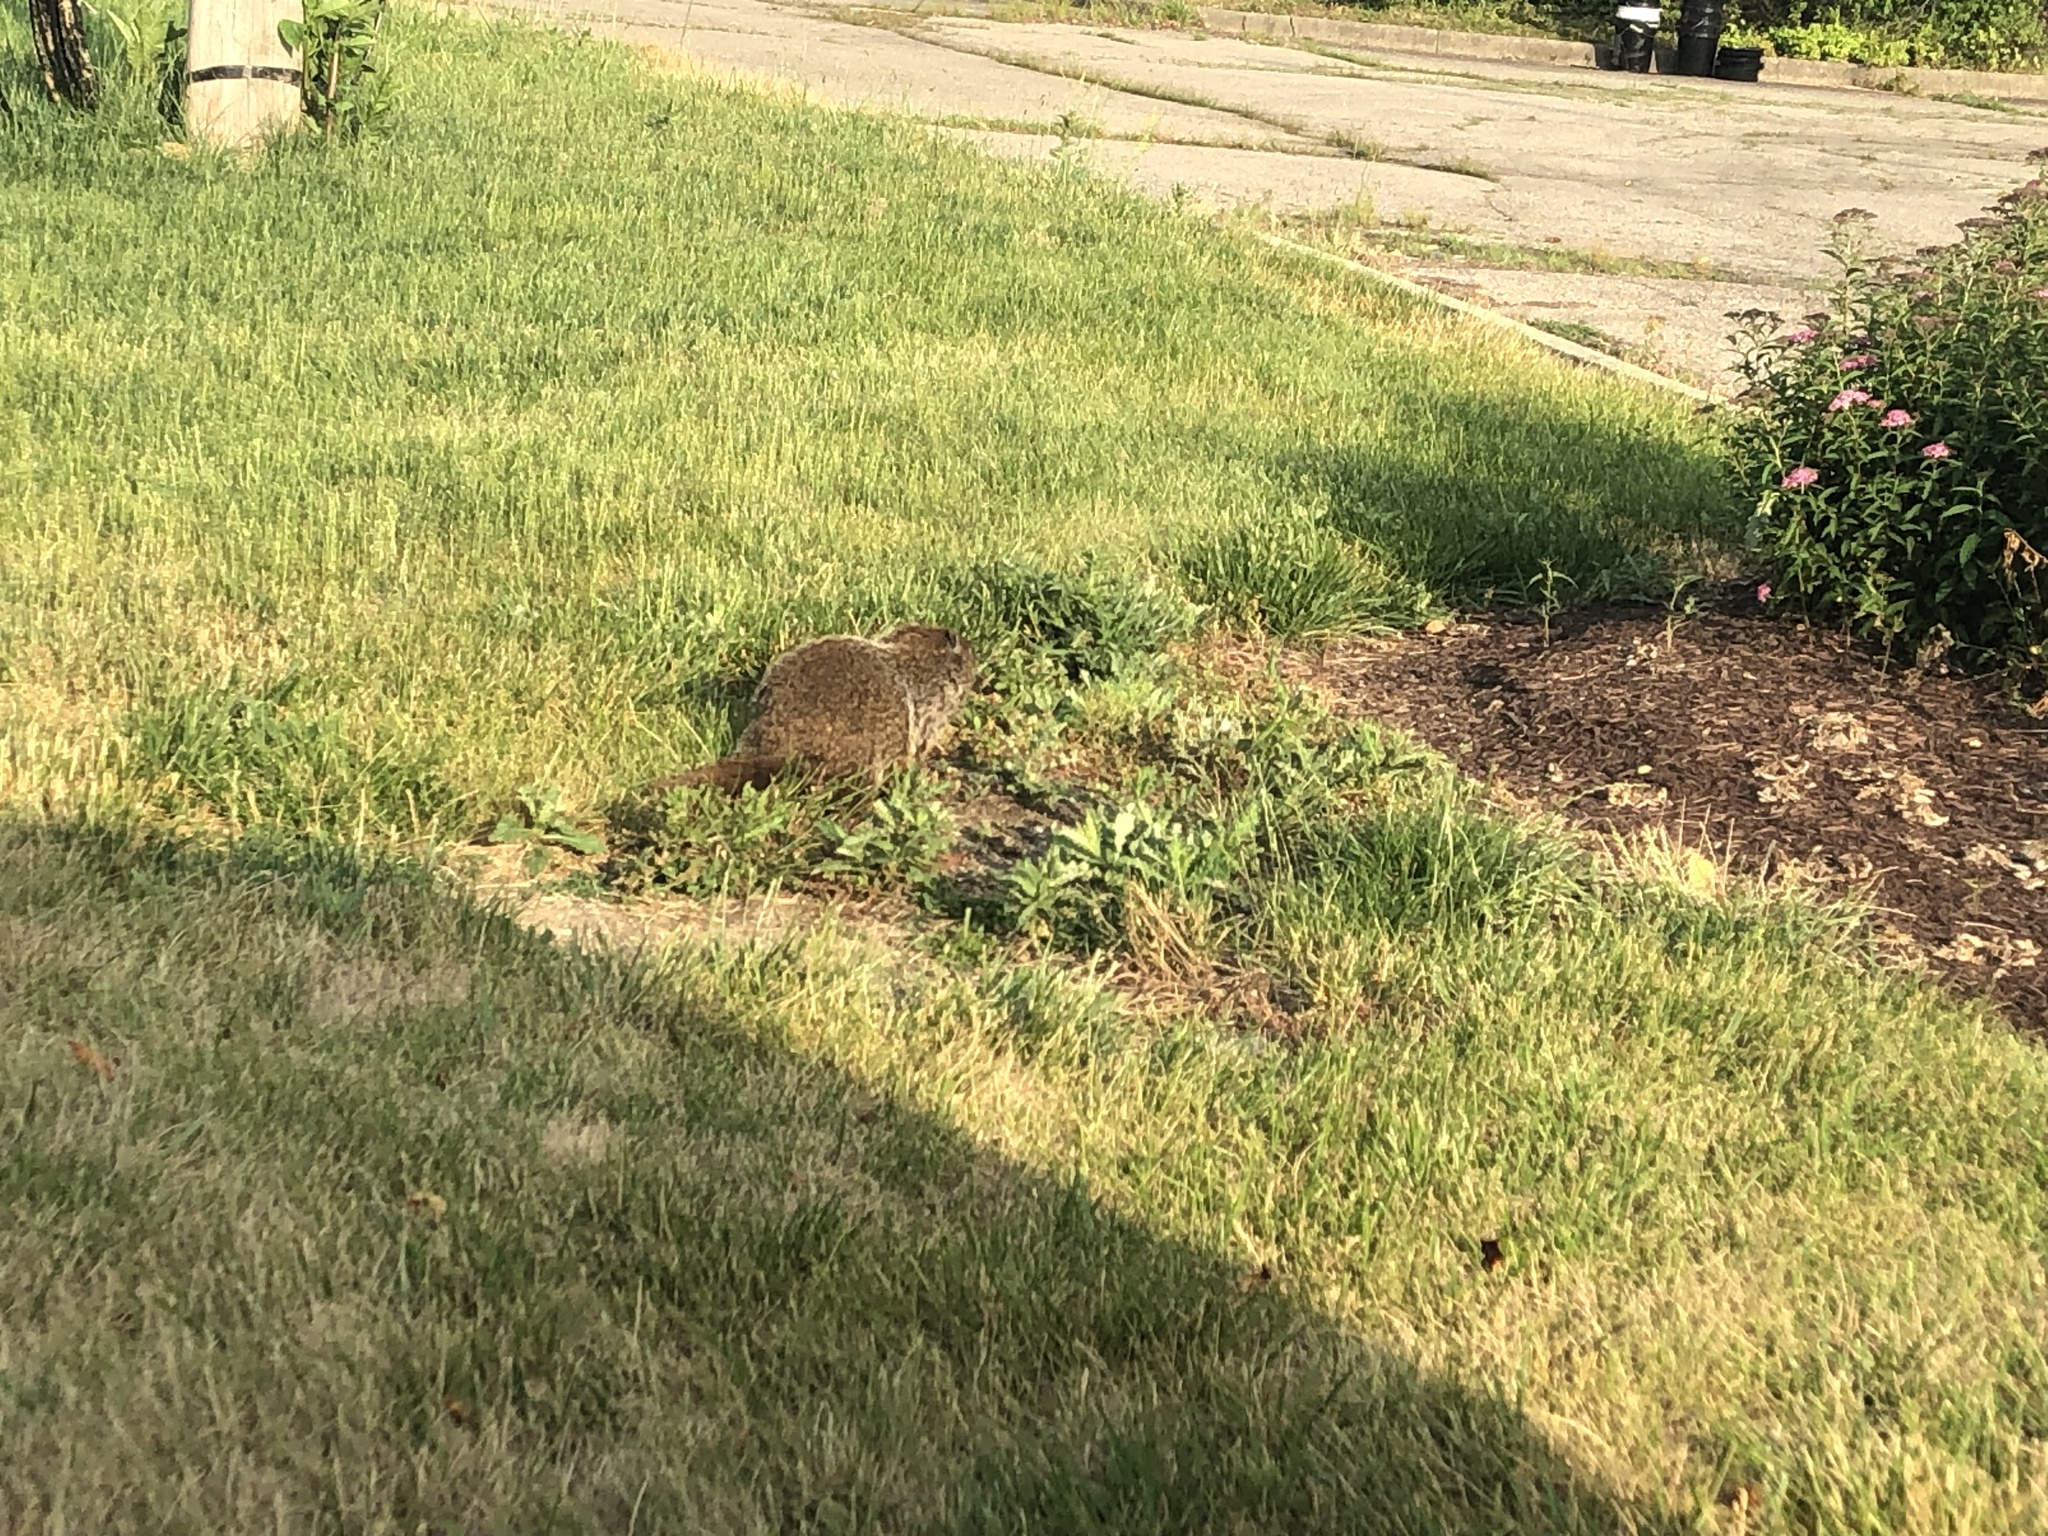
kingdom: Animalia
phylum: Chordata
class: Mammalia
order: Rodentia
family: Sciuridae
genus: Marmota
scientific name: Marmota monax
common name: Groundhog
